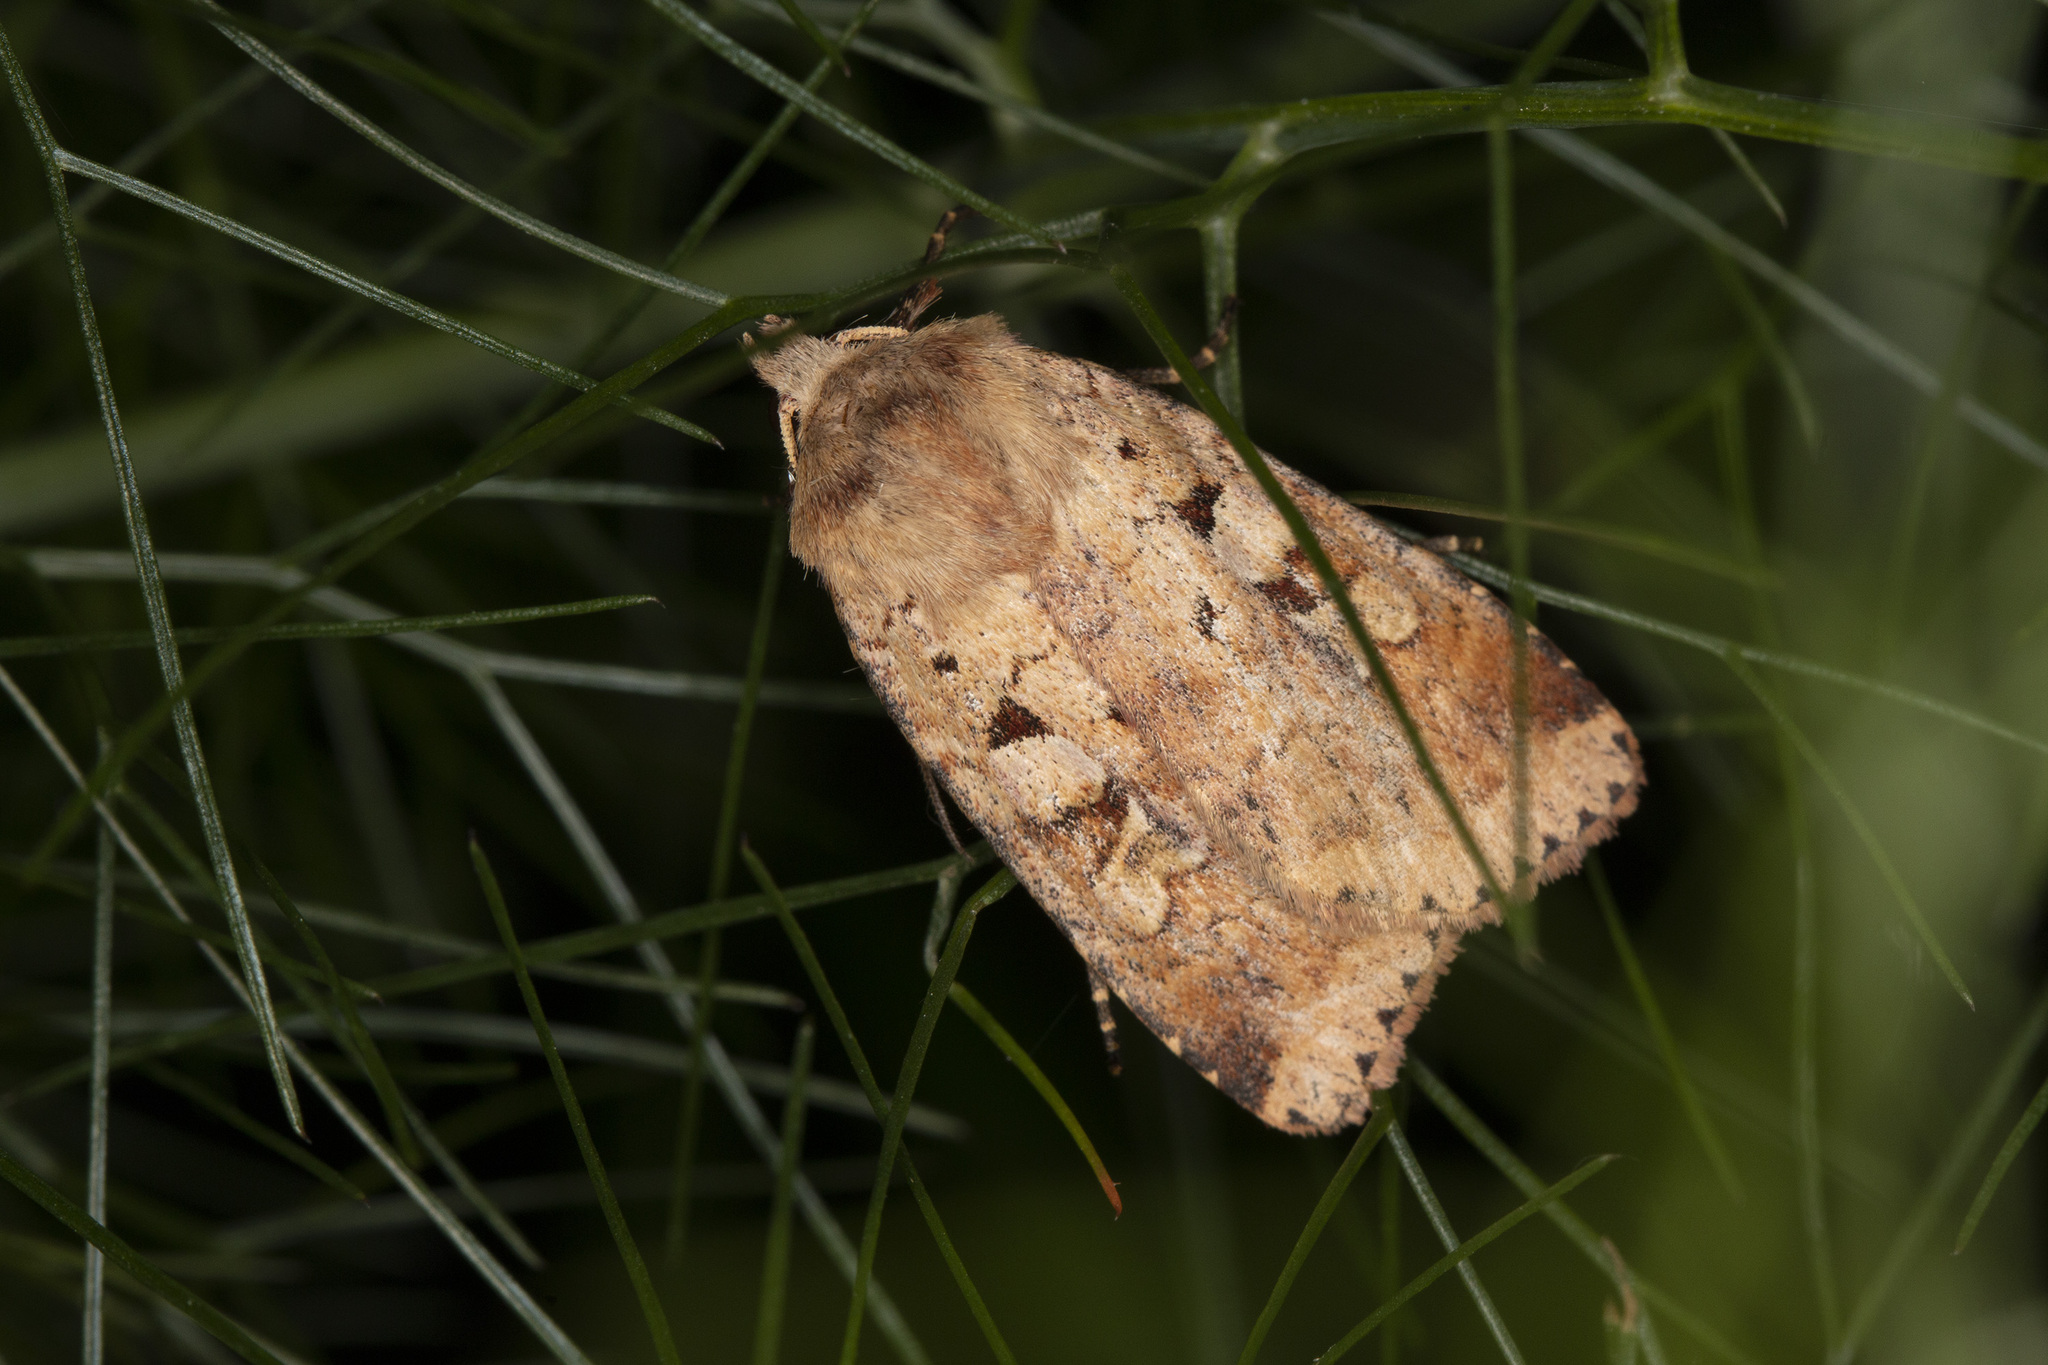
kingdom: Animalia
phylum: Arthropoda
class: Insecta
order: Lepidoptera
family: Noctuidae
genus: Diarsia
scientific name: Diarsia mendica
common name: Ingrailed clay
